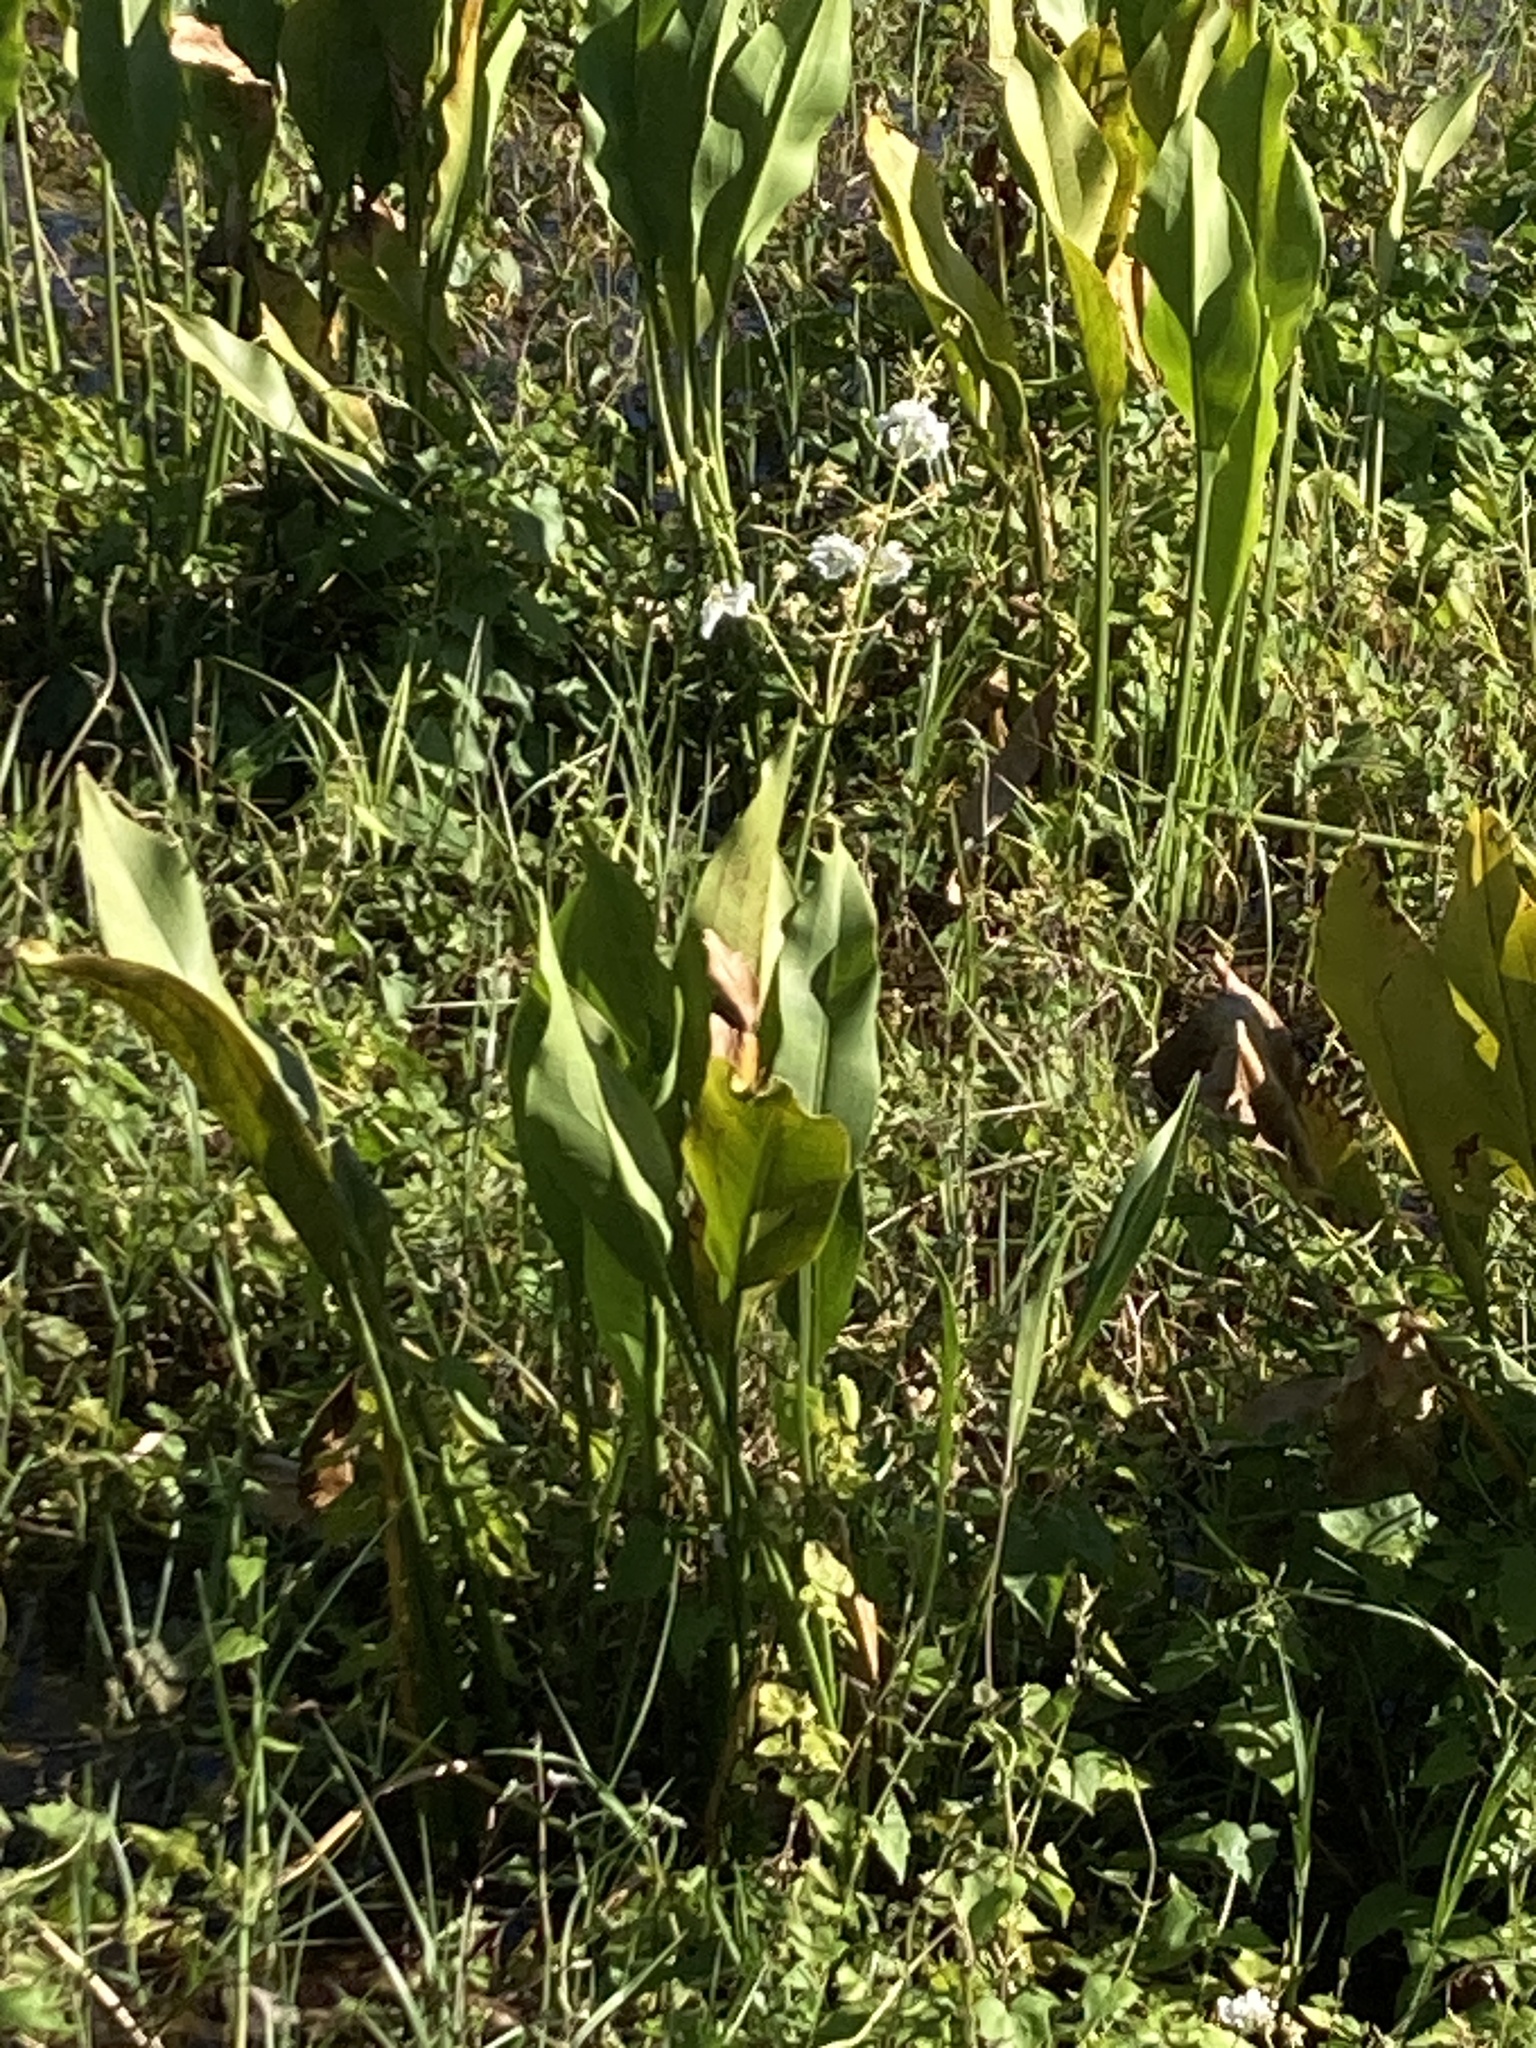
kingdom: Plantae
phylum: Tracheophyta
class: Liliopsida
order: Alismatales
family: Alismataceae
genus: Sagittaria
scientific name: Sagittaria lancifolia
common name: Lance-leaf arrowhead
